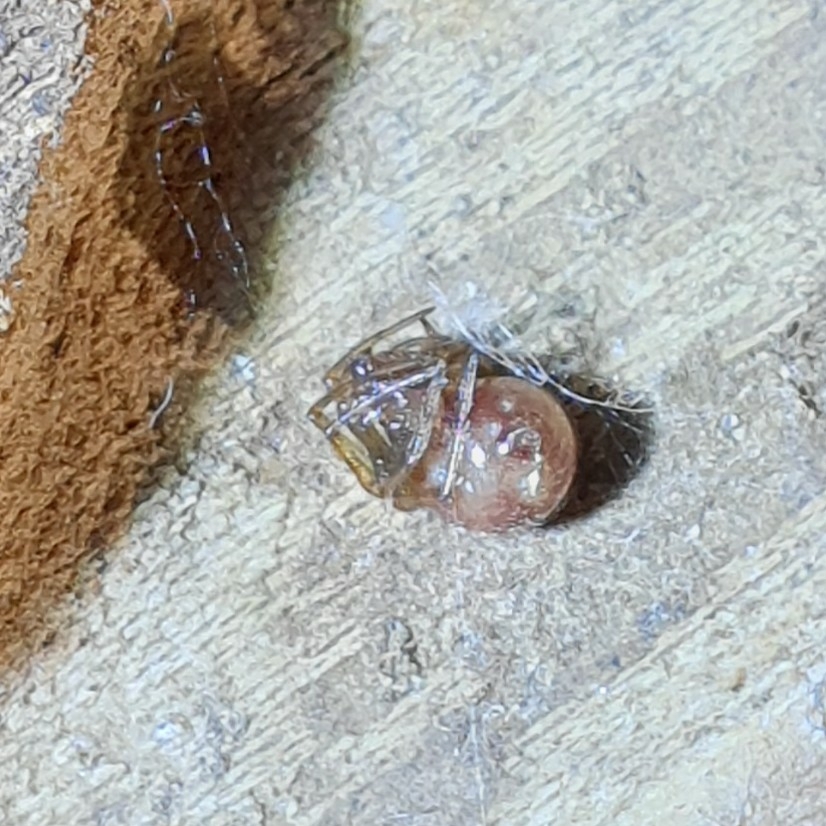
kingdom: Animalia
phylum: Arthropoda
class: Arachnida
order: Araneae
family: Theridiidae
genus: Steatoda
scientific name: Steatoda triangulosa
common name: Triangulate bud spider
